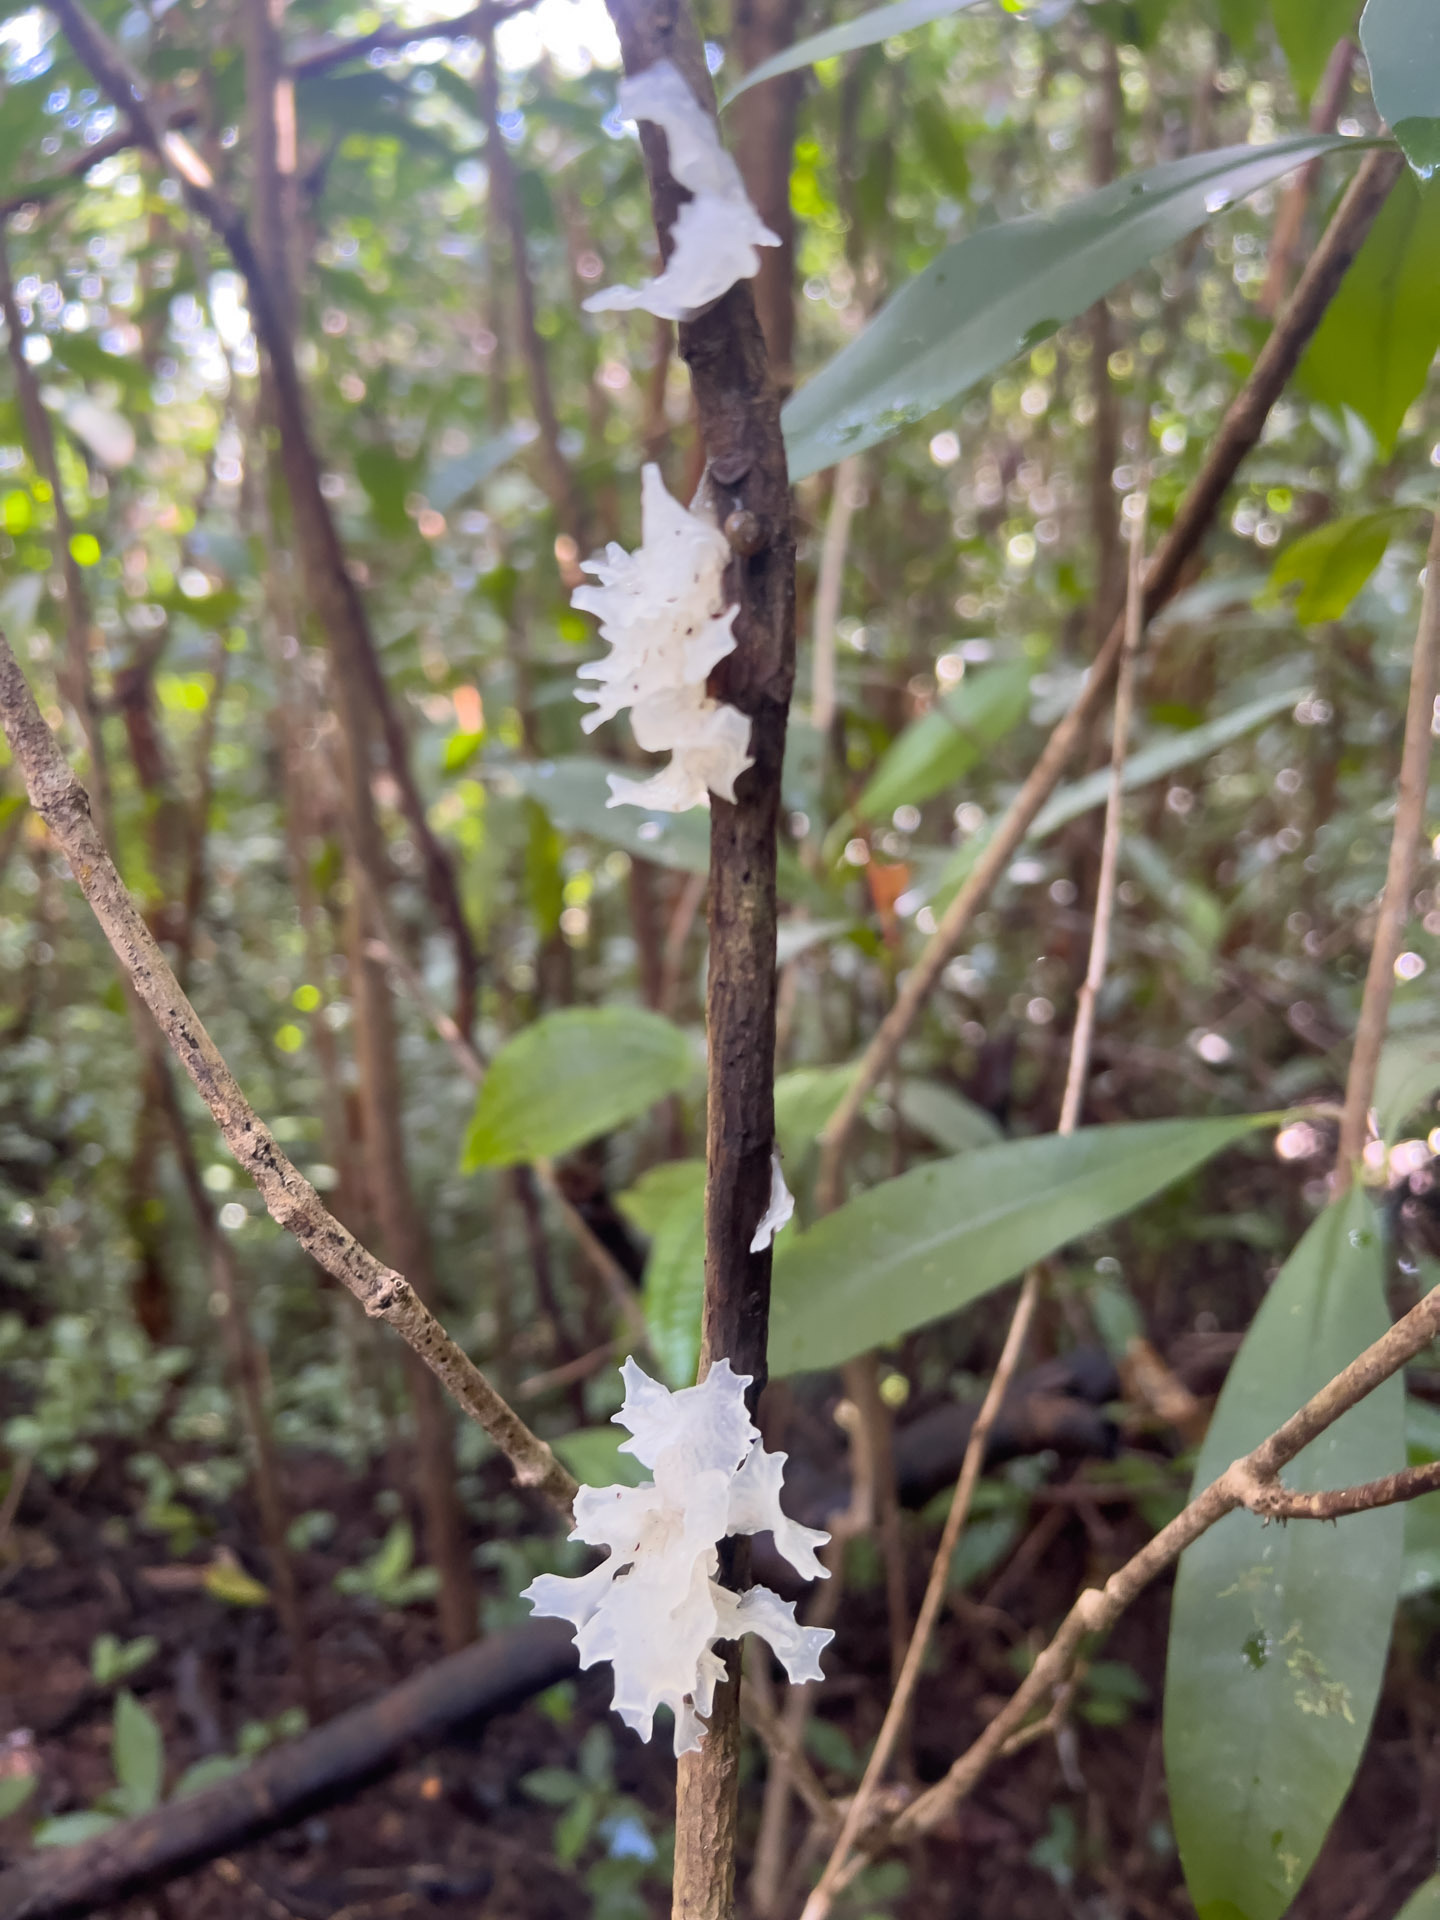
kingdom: Fungi
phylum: Basidiomycota
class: Tremellomycetes
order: Tremellales
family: Tremellaceae
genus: Tremella
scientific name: Tremella fuciformis
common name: Snow fungus
